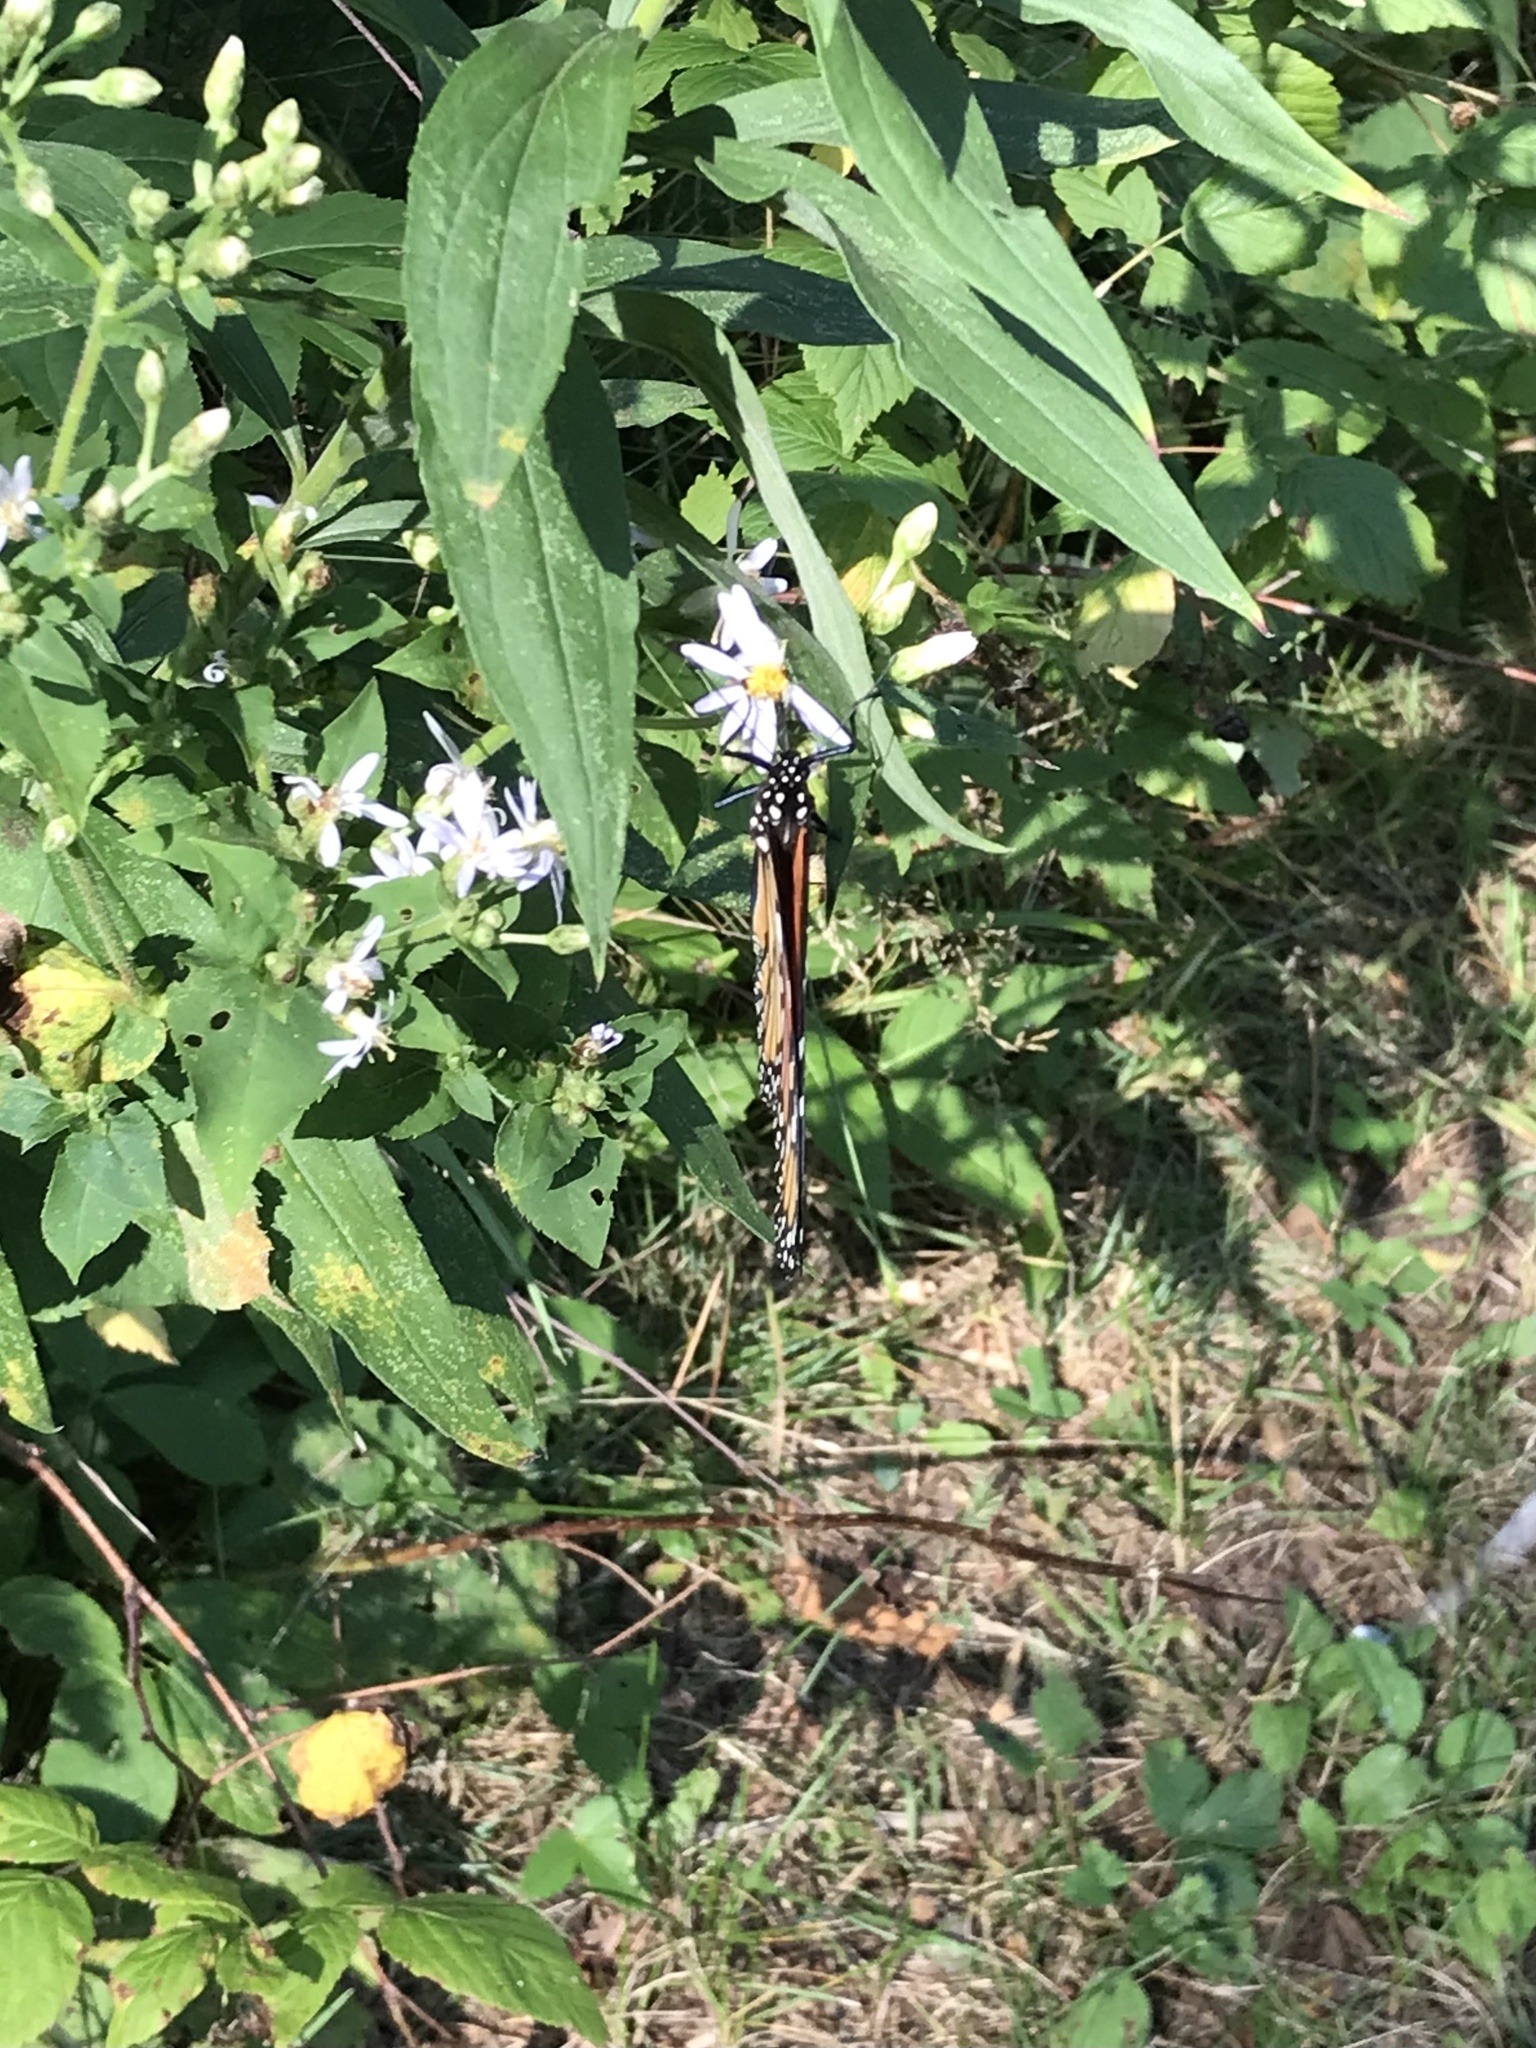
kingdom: Animalia
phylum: Arthropoda
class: Insecta
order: Lepidoptera
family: Nymphalidae
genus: Danaus
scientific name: Danaus plexippus
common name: Monarch
